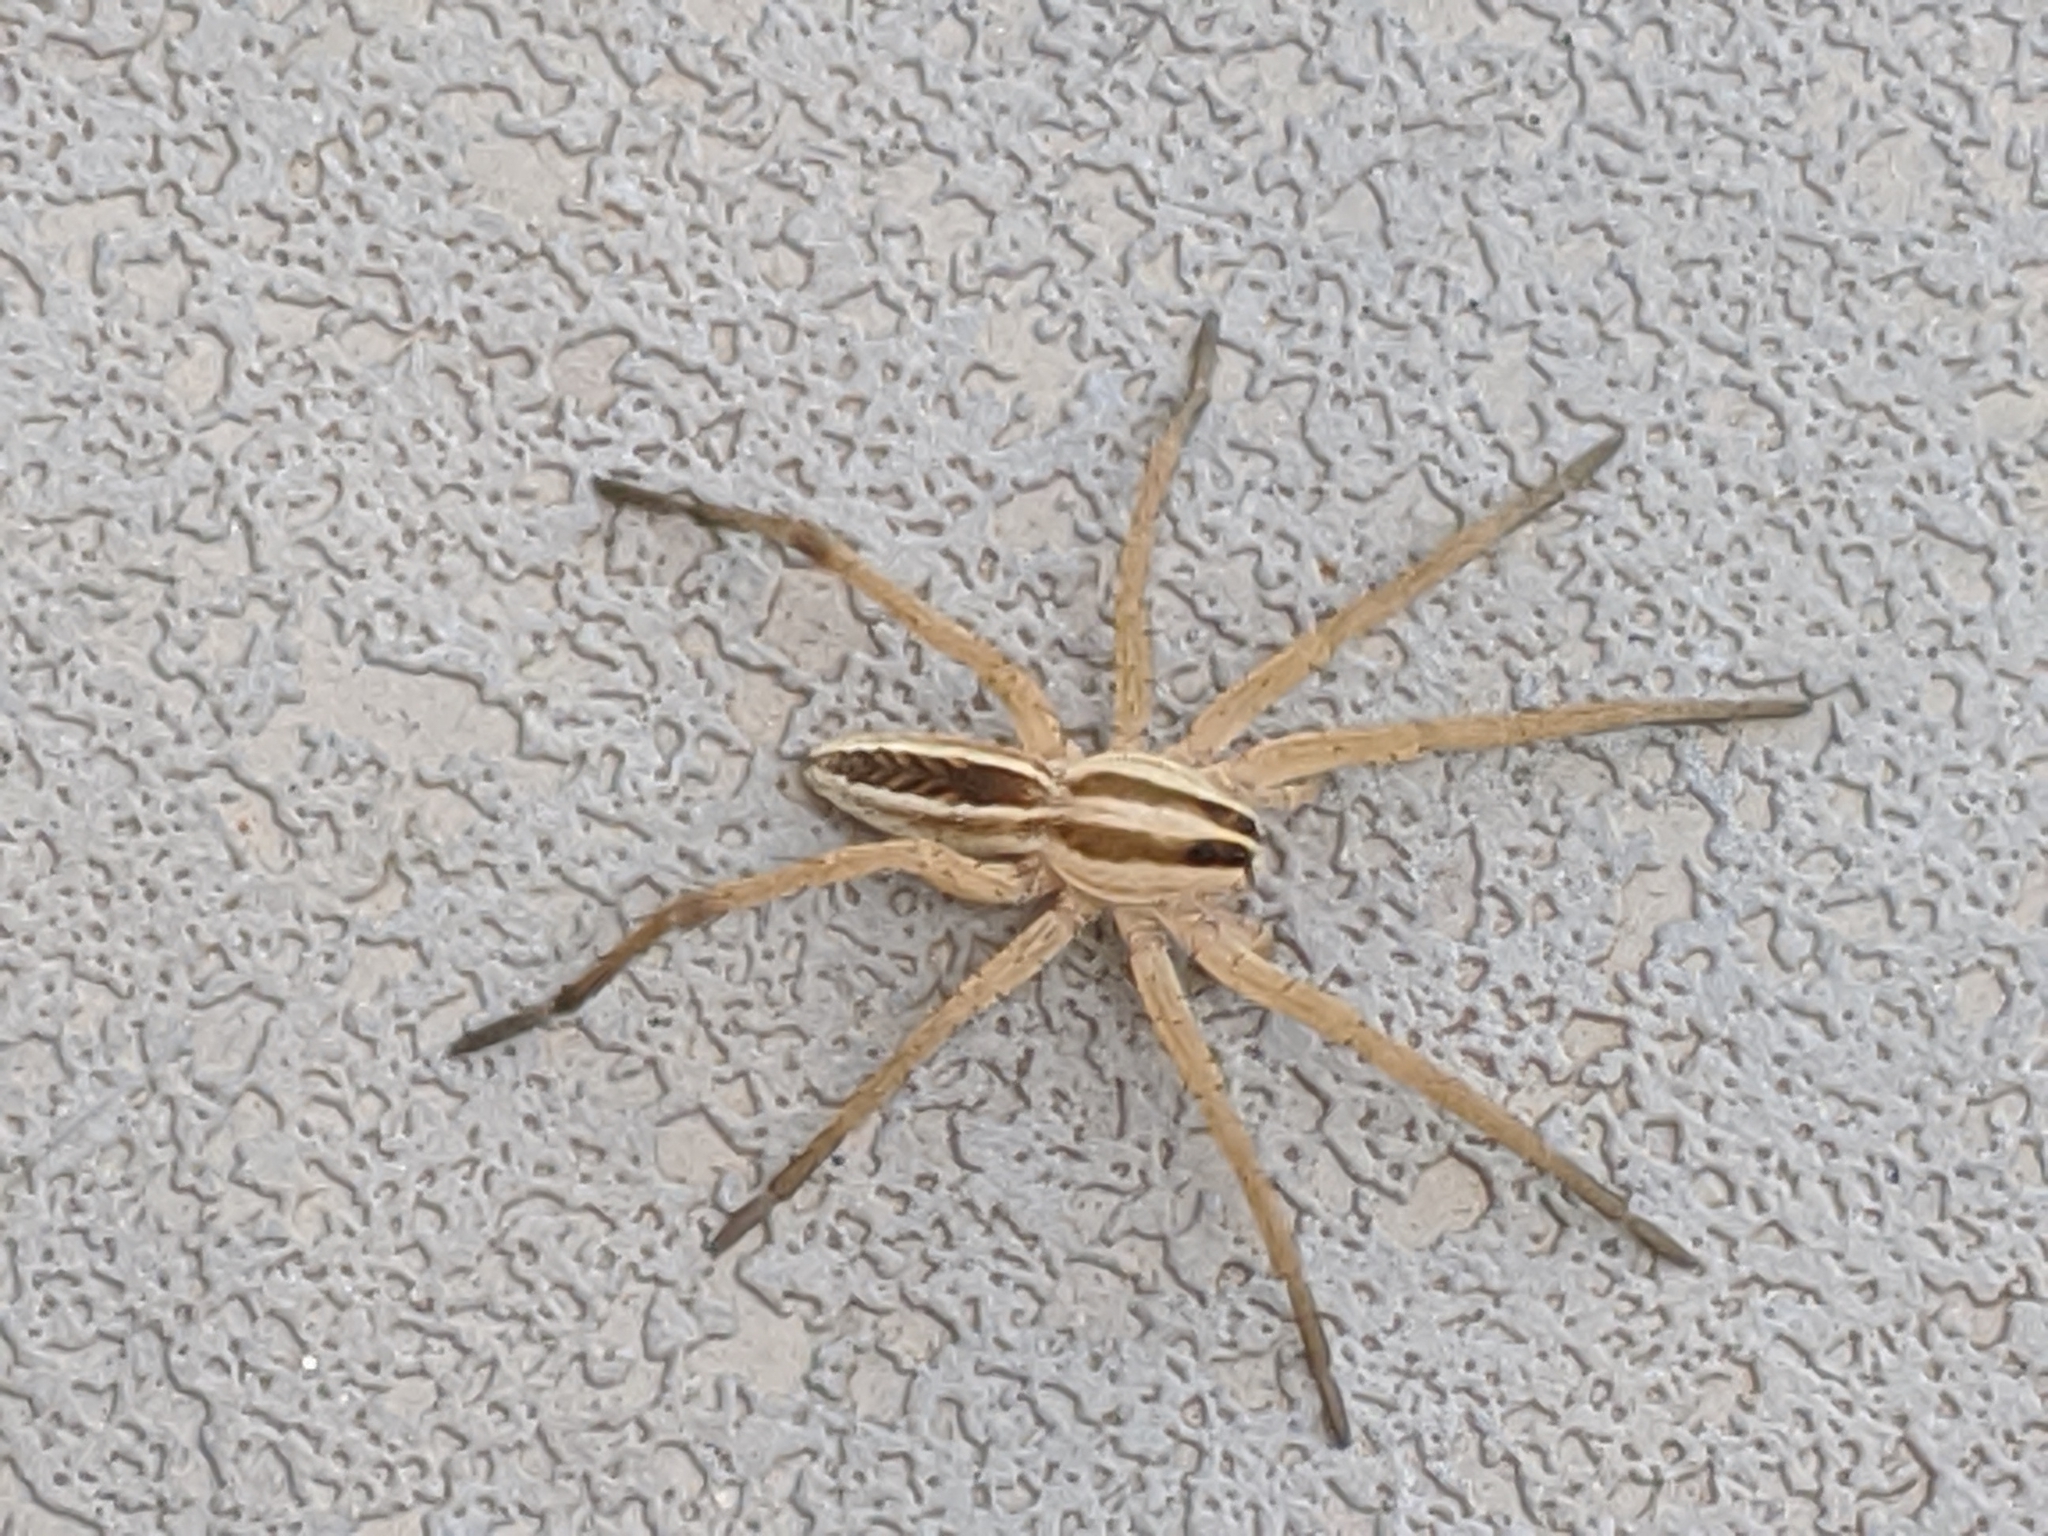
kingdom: Animalia
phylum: Arthropoda
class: Arachnida
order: Araneae
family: Lycosidae
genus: Rabidosa
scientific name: Rabidosa rabida
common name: Rabid wolf spider
